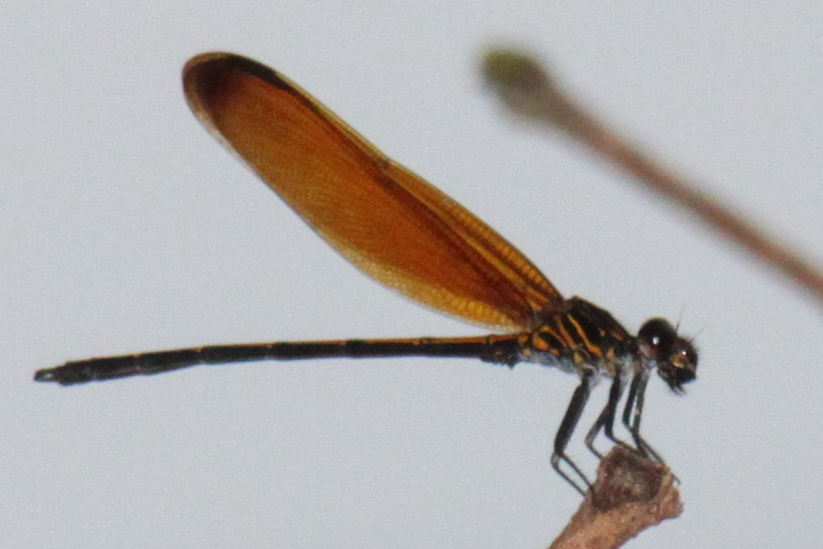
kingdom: Animalia
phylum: Arthropoda
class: Insecta
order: Odonata
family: Euphaeidae
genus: Dysphaea
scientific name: Dysphaea gloriosa
